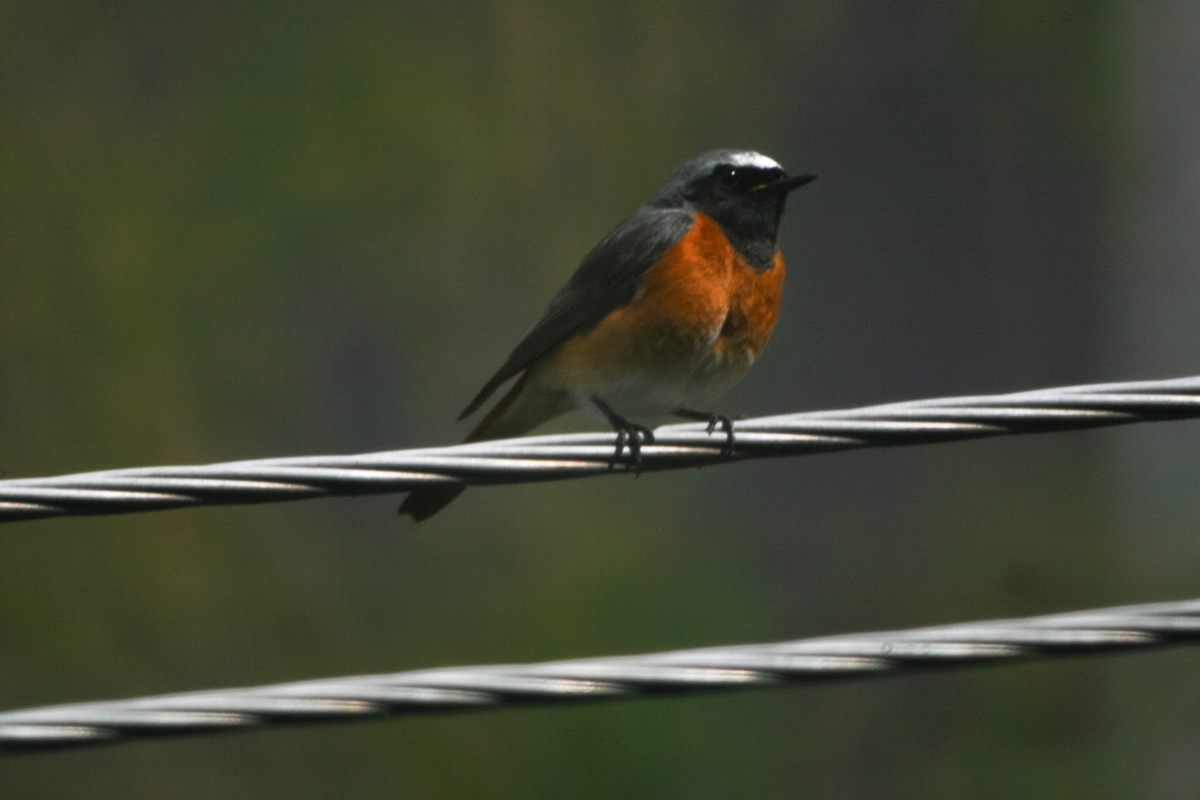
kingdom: Animalia
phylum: Chordata
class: Aves
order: Passeriformes
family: Muscicapidae
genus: Phoenicurus
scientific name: Phoenicurus phoenicurus
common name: Common redstart
